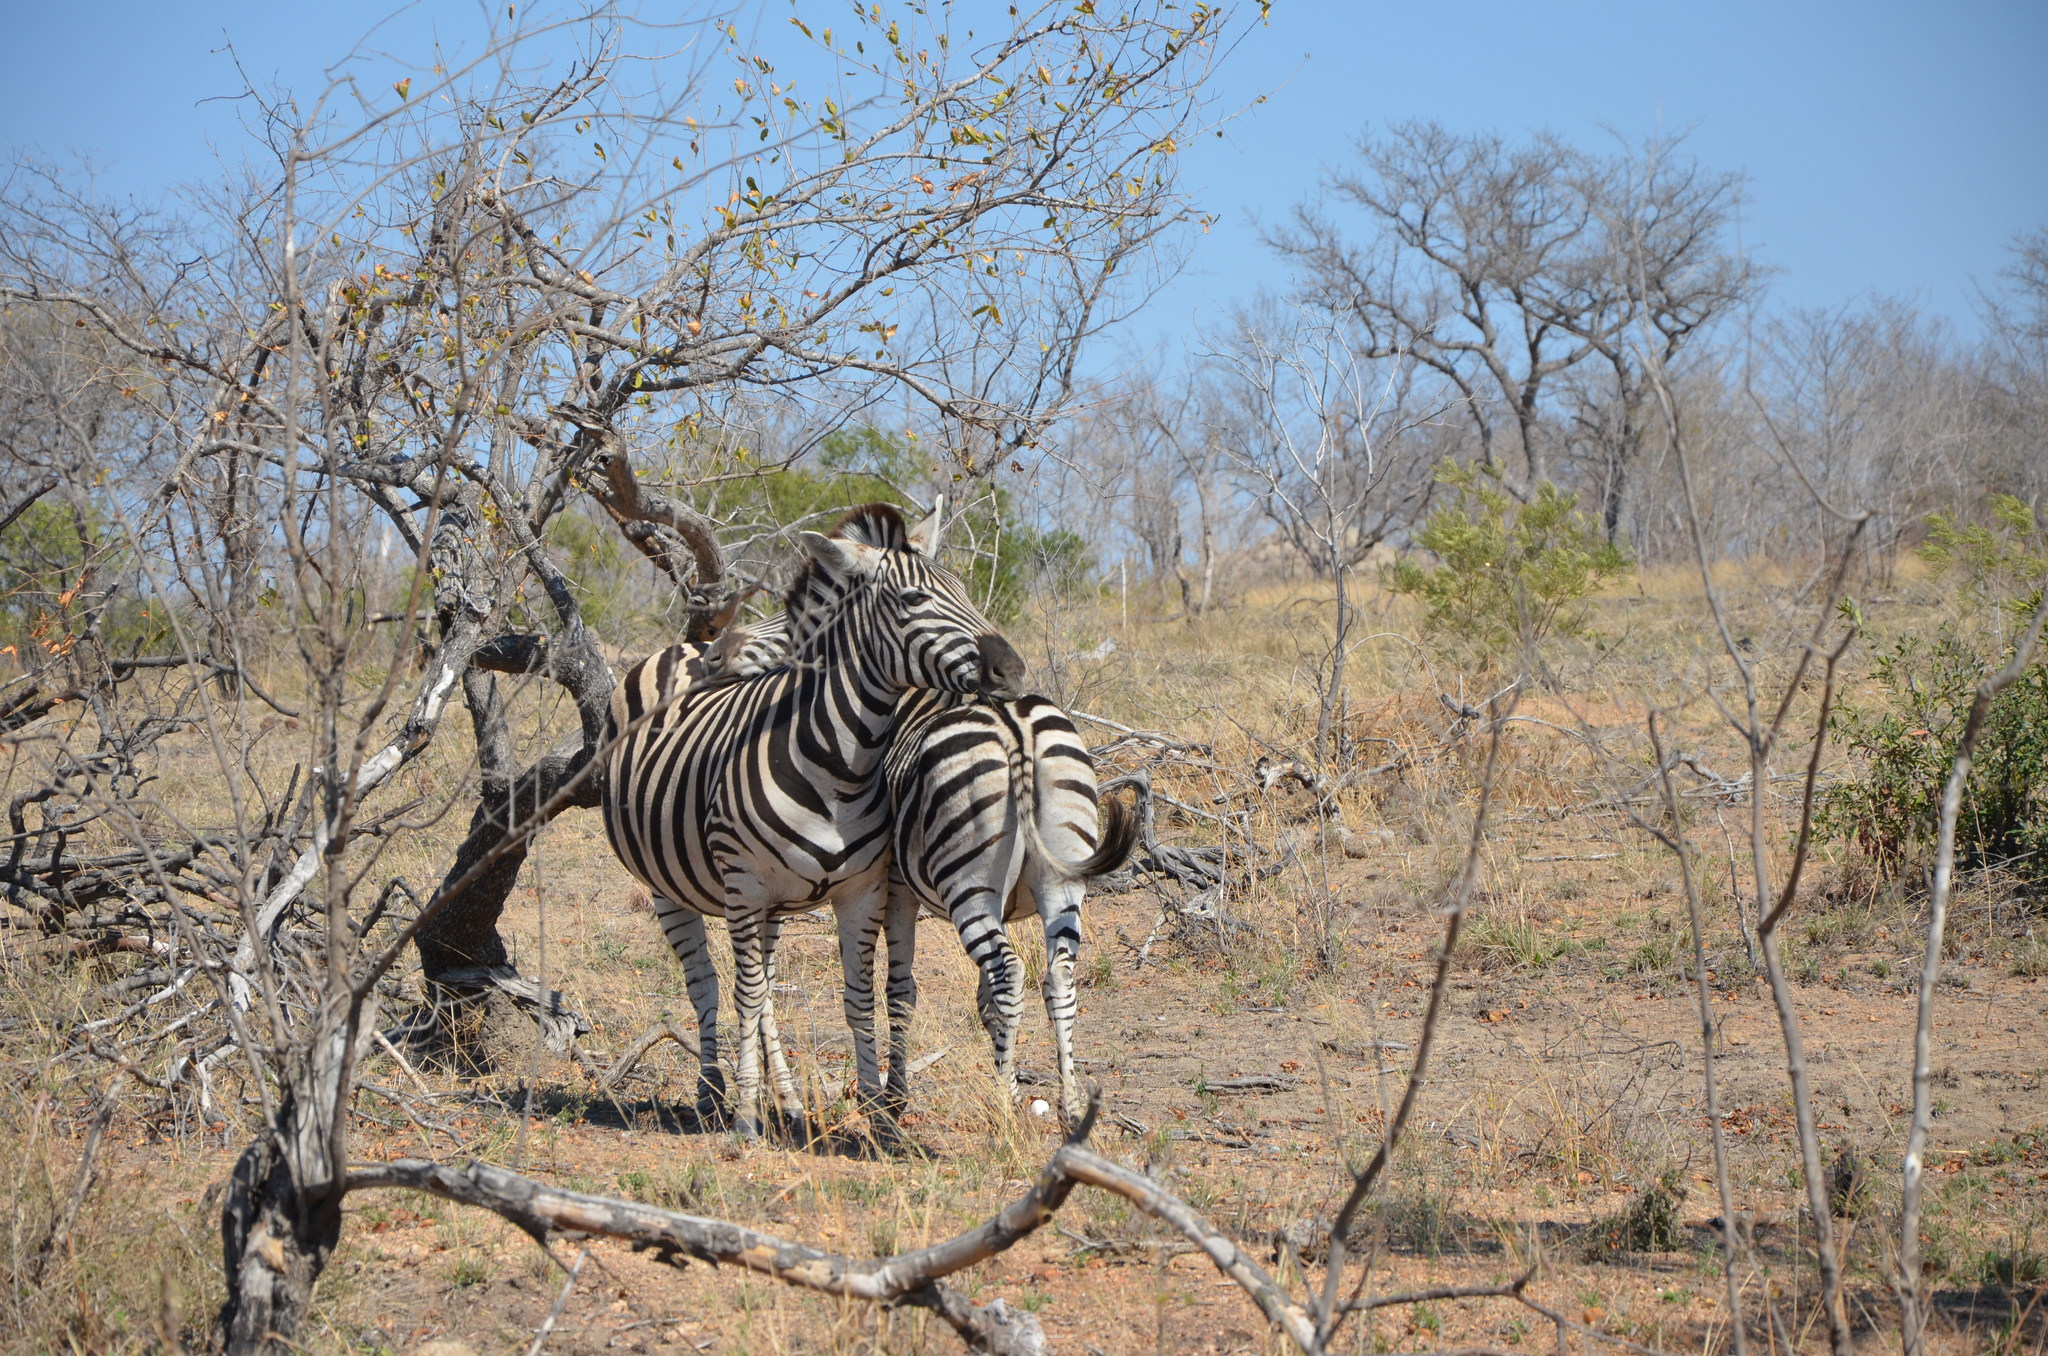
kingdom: Animalia
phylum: Chordata
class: Mammalia
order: Perissodactyla
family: Equidae
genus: Equus
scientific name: Equus quagga
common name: Plains zebra
